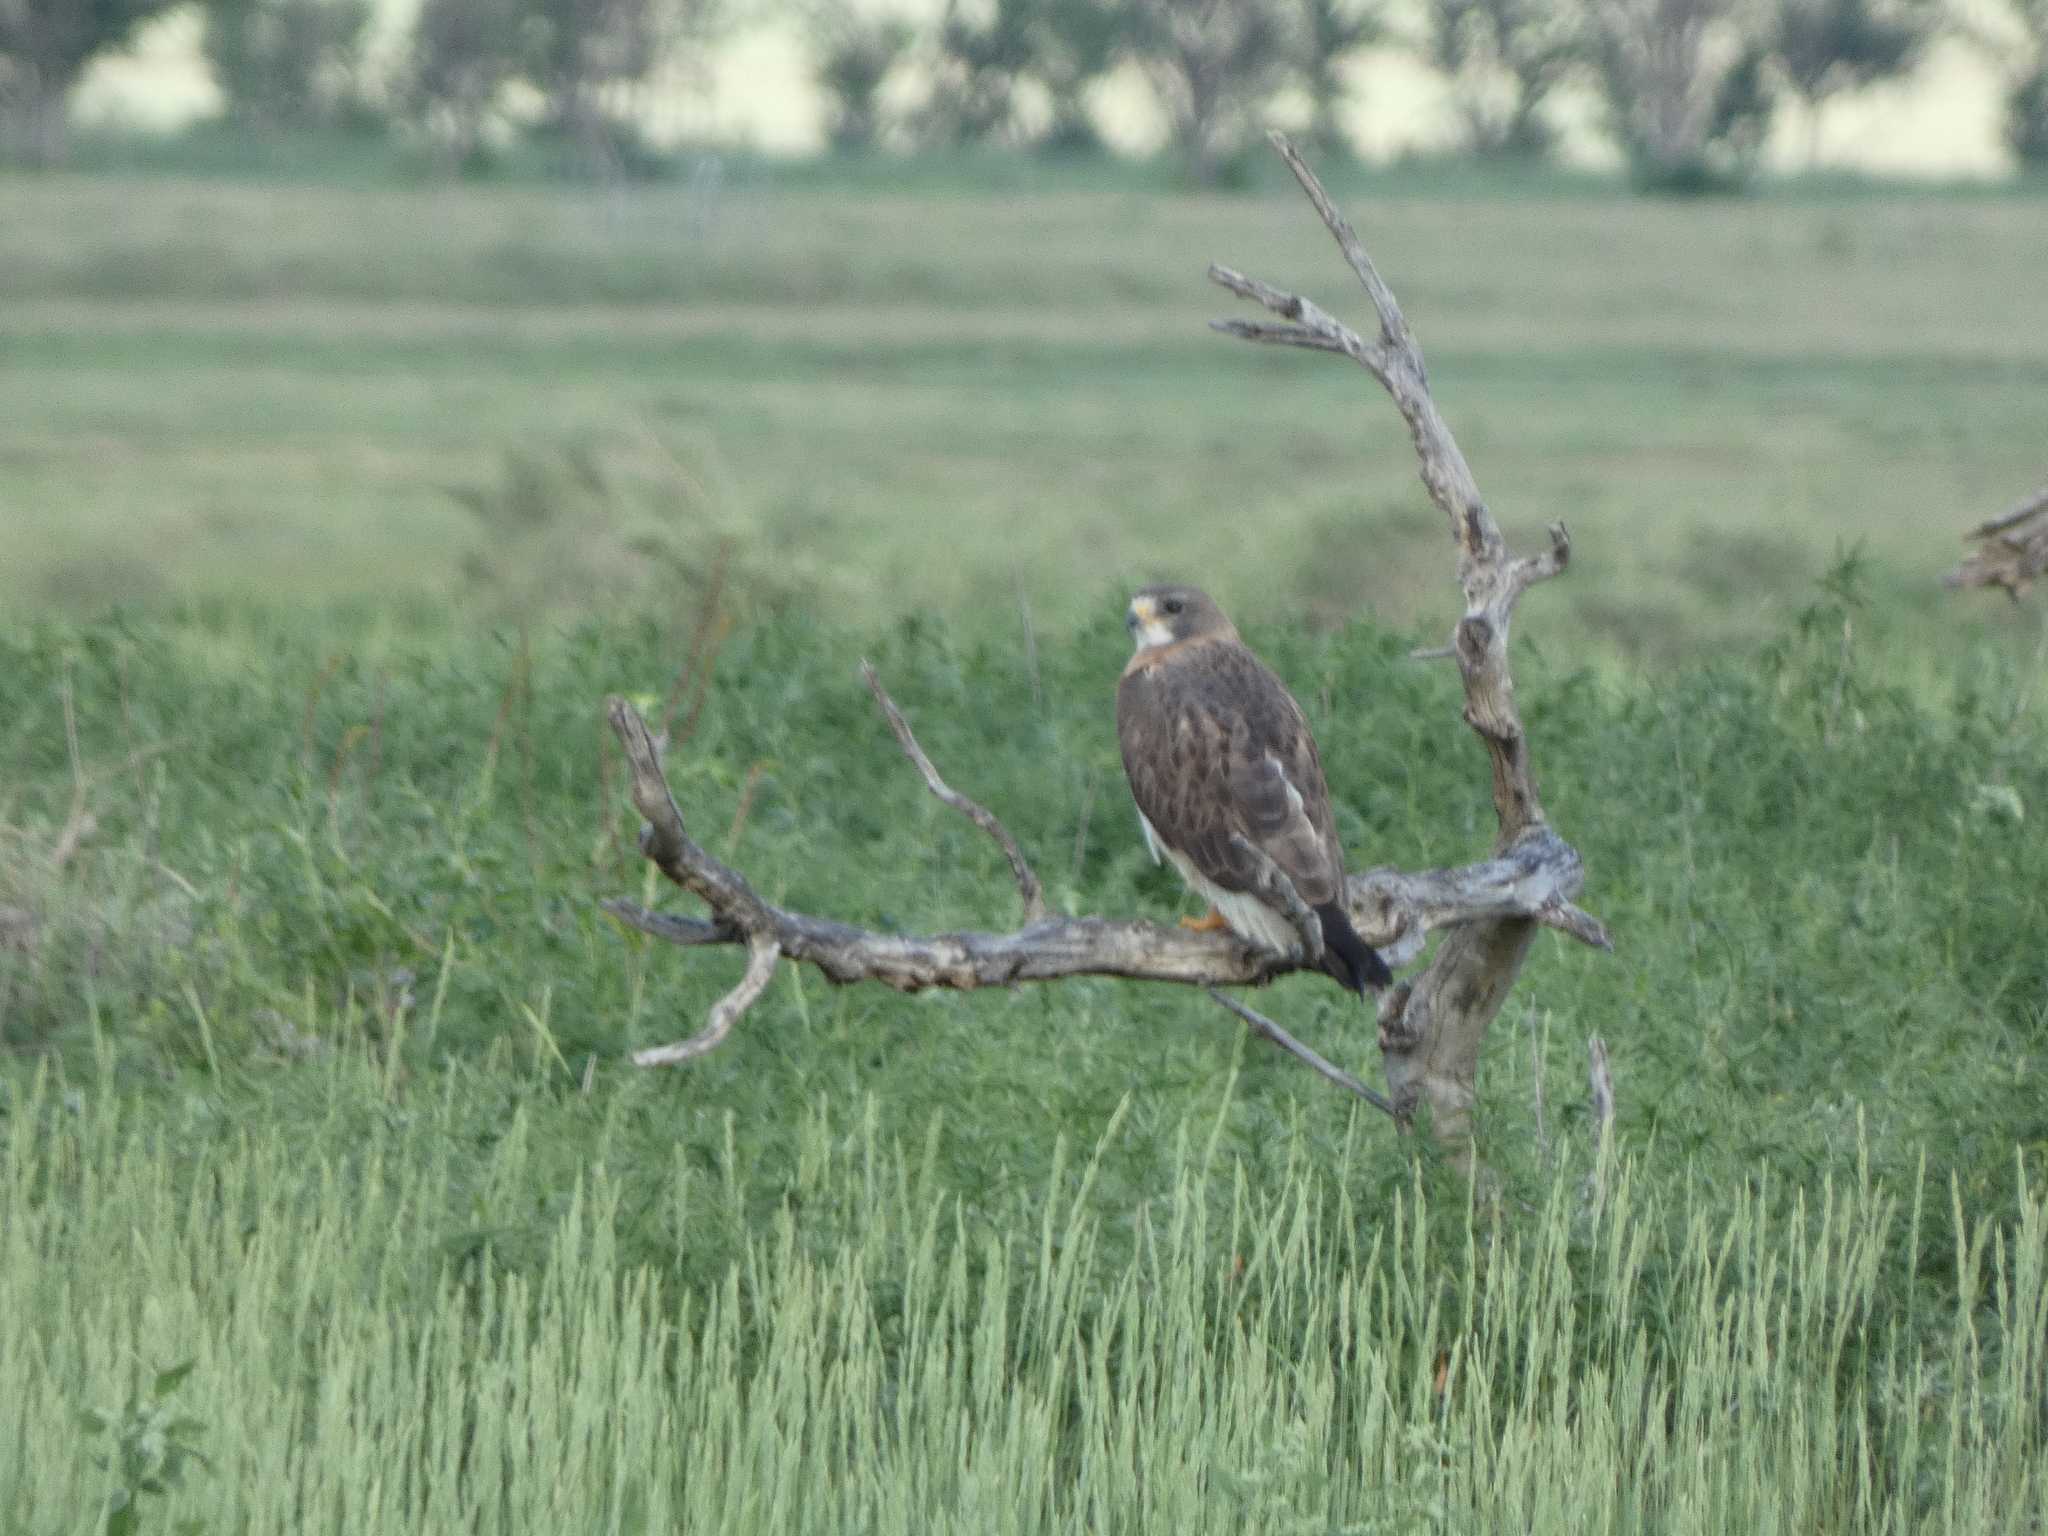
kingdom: Animalia
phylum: Chordata
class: Aves
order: Accipitriformes
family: Accipitridae
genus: Buteo
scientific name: Buteo swainsoni
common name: Swainson's hawk
